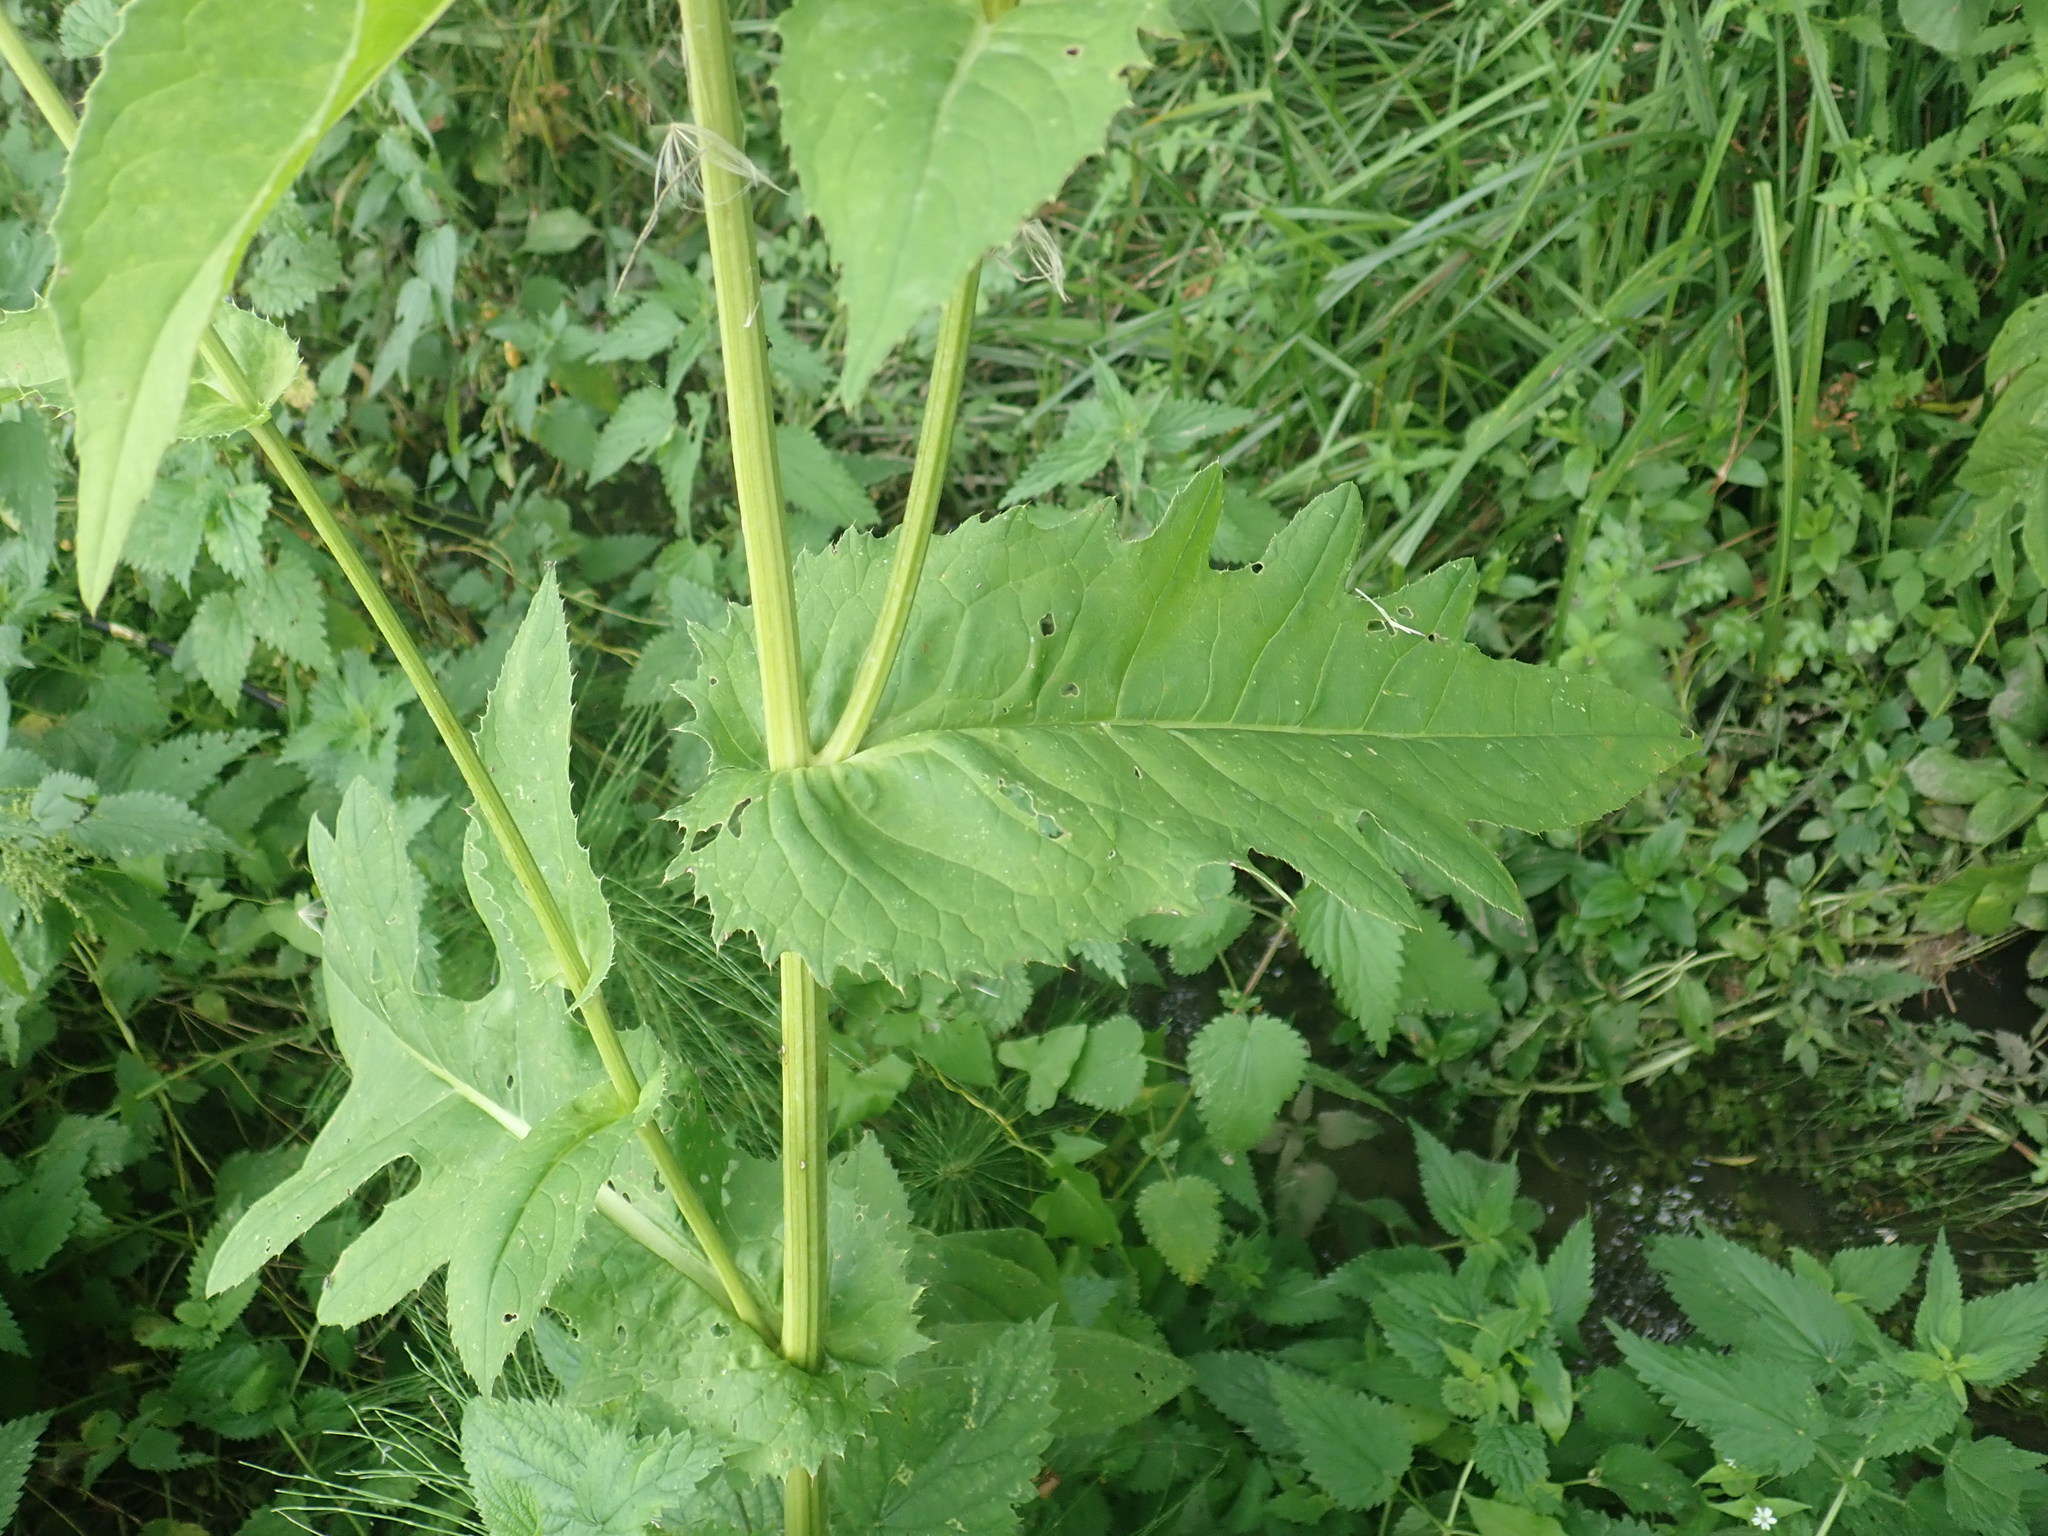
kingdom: Plantae
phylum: Tracheophyta
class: Magnoliopsida
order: Asterales
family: Asteraceae
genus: Cirsium
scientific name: Cirsium oleraceum
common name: Cabbage thistle
